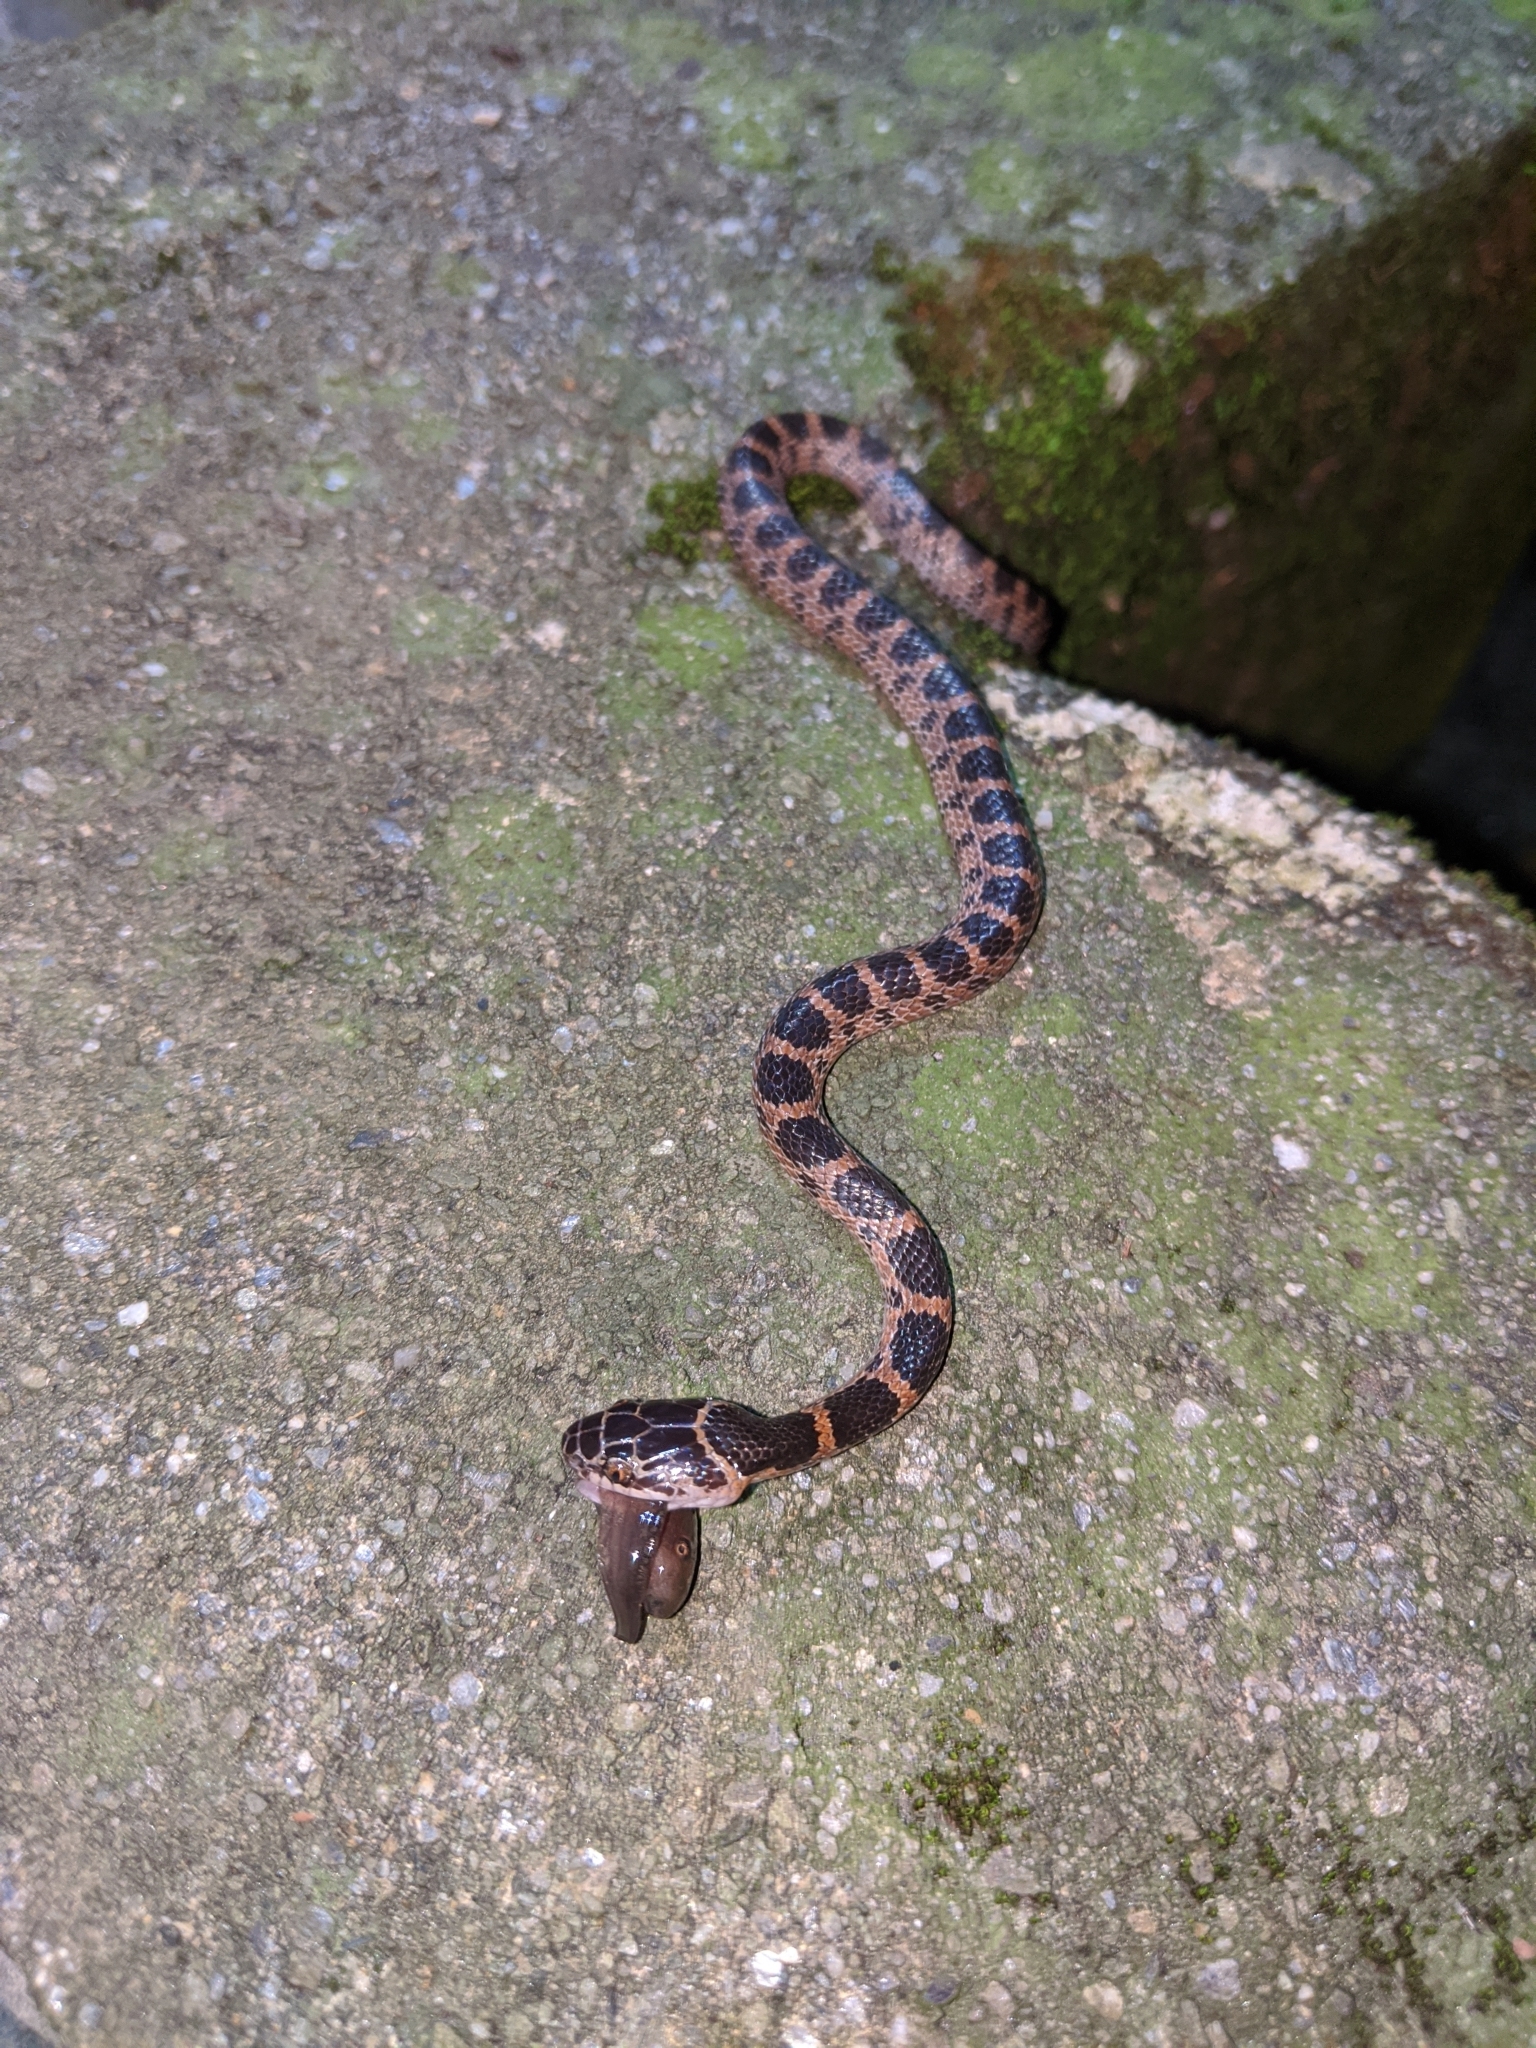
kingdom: Animalia
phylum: Chordata
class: Squamata
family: Colubridae
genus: Lycodon
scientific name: Lycodon rufozonatus
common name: Red-banded snake
